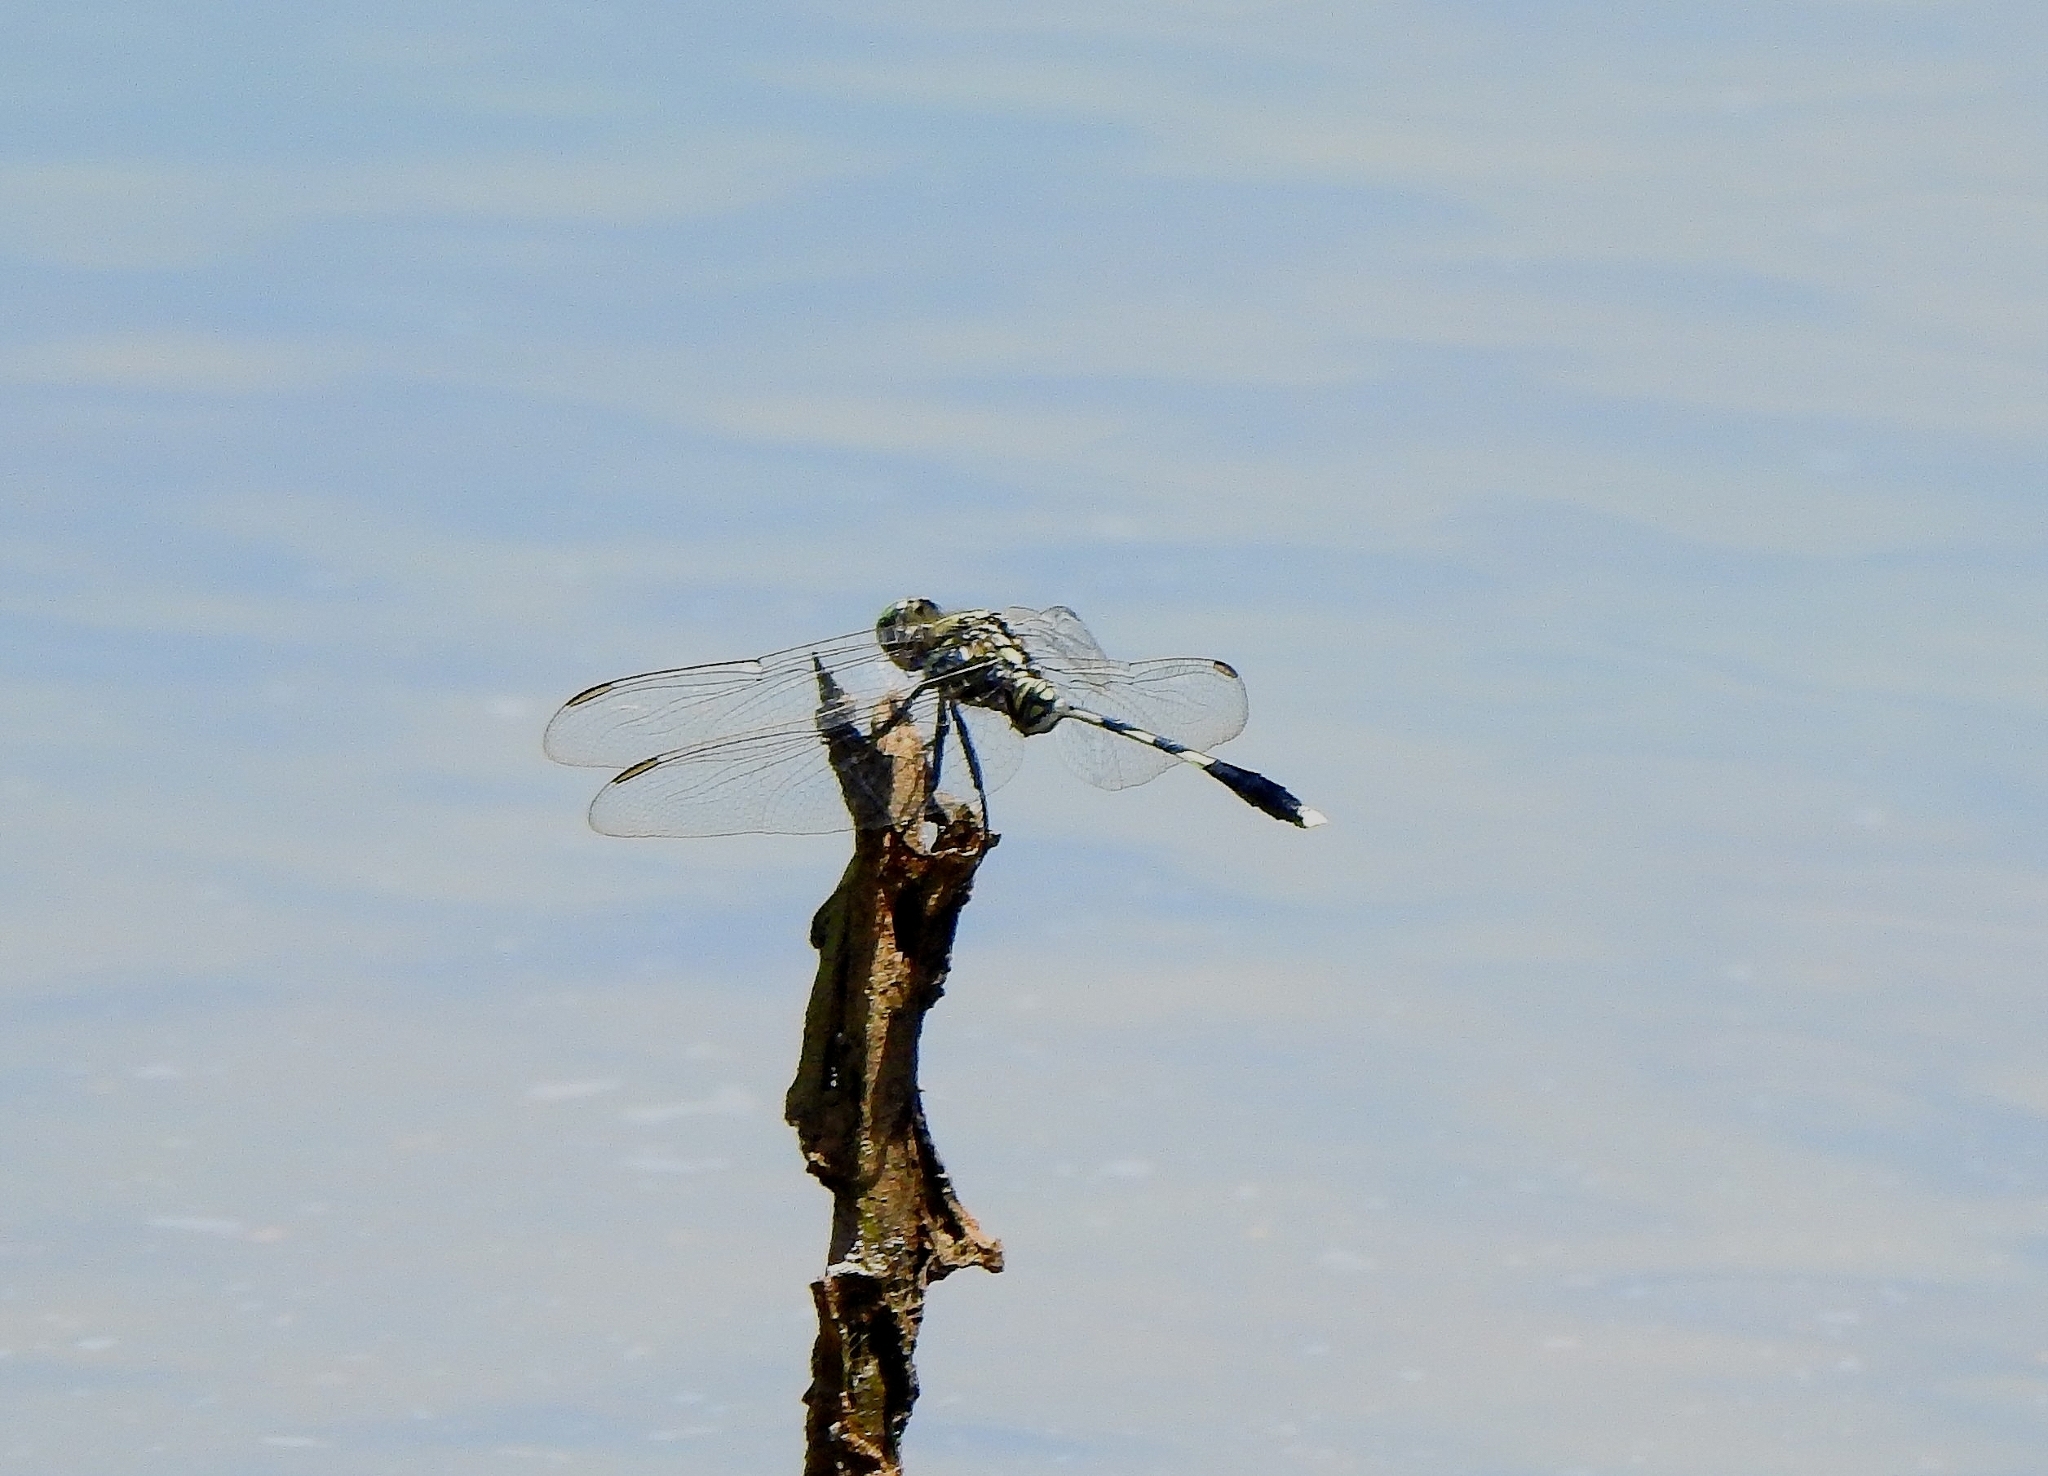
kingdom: Animalia
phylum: Arthropoda
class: Insecta
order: Odonata
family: Libellulidae
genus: Orthetrum
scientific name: Orthetrum sabina
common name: Slender skimmer
